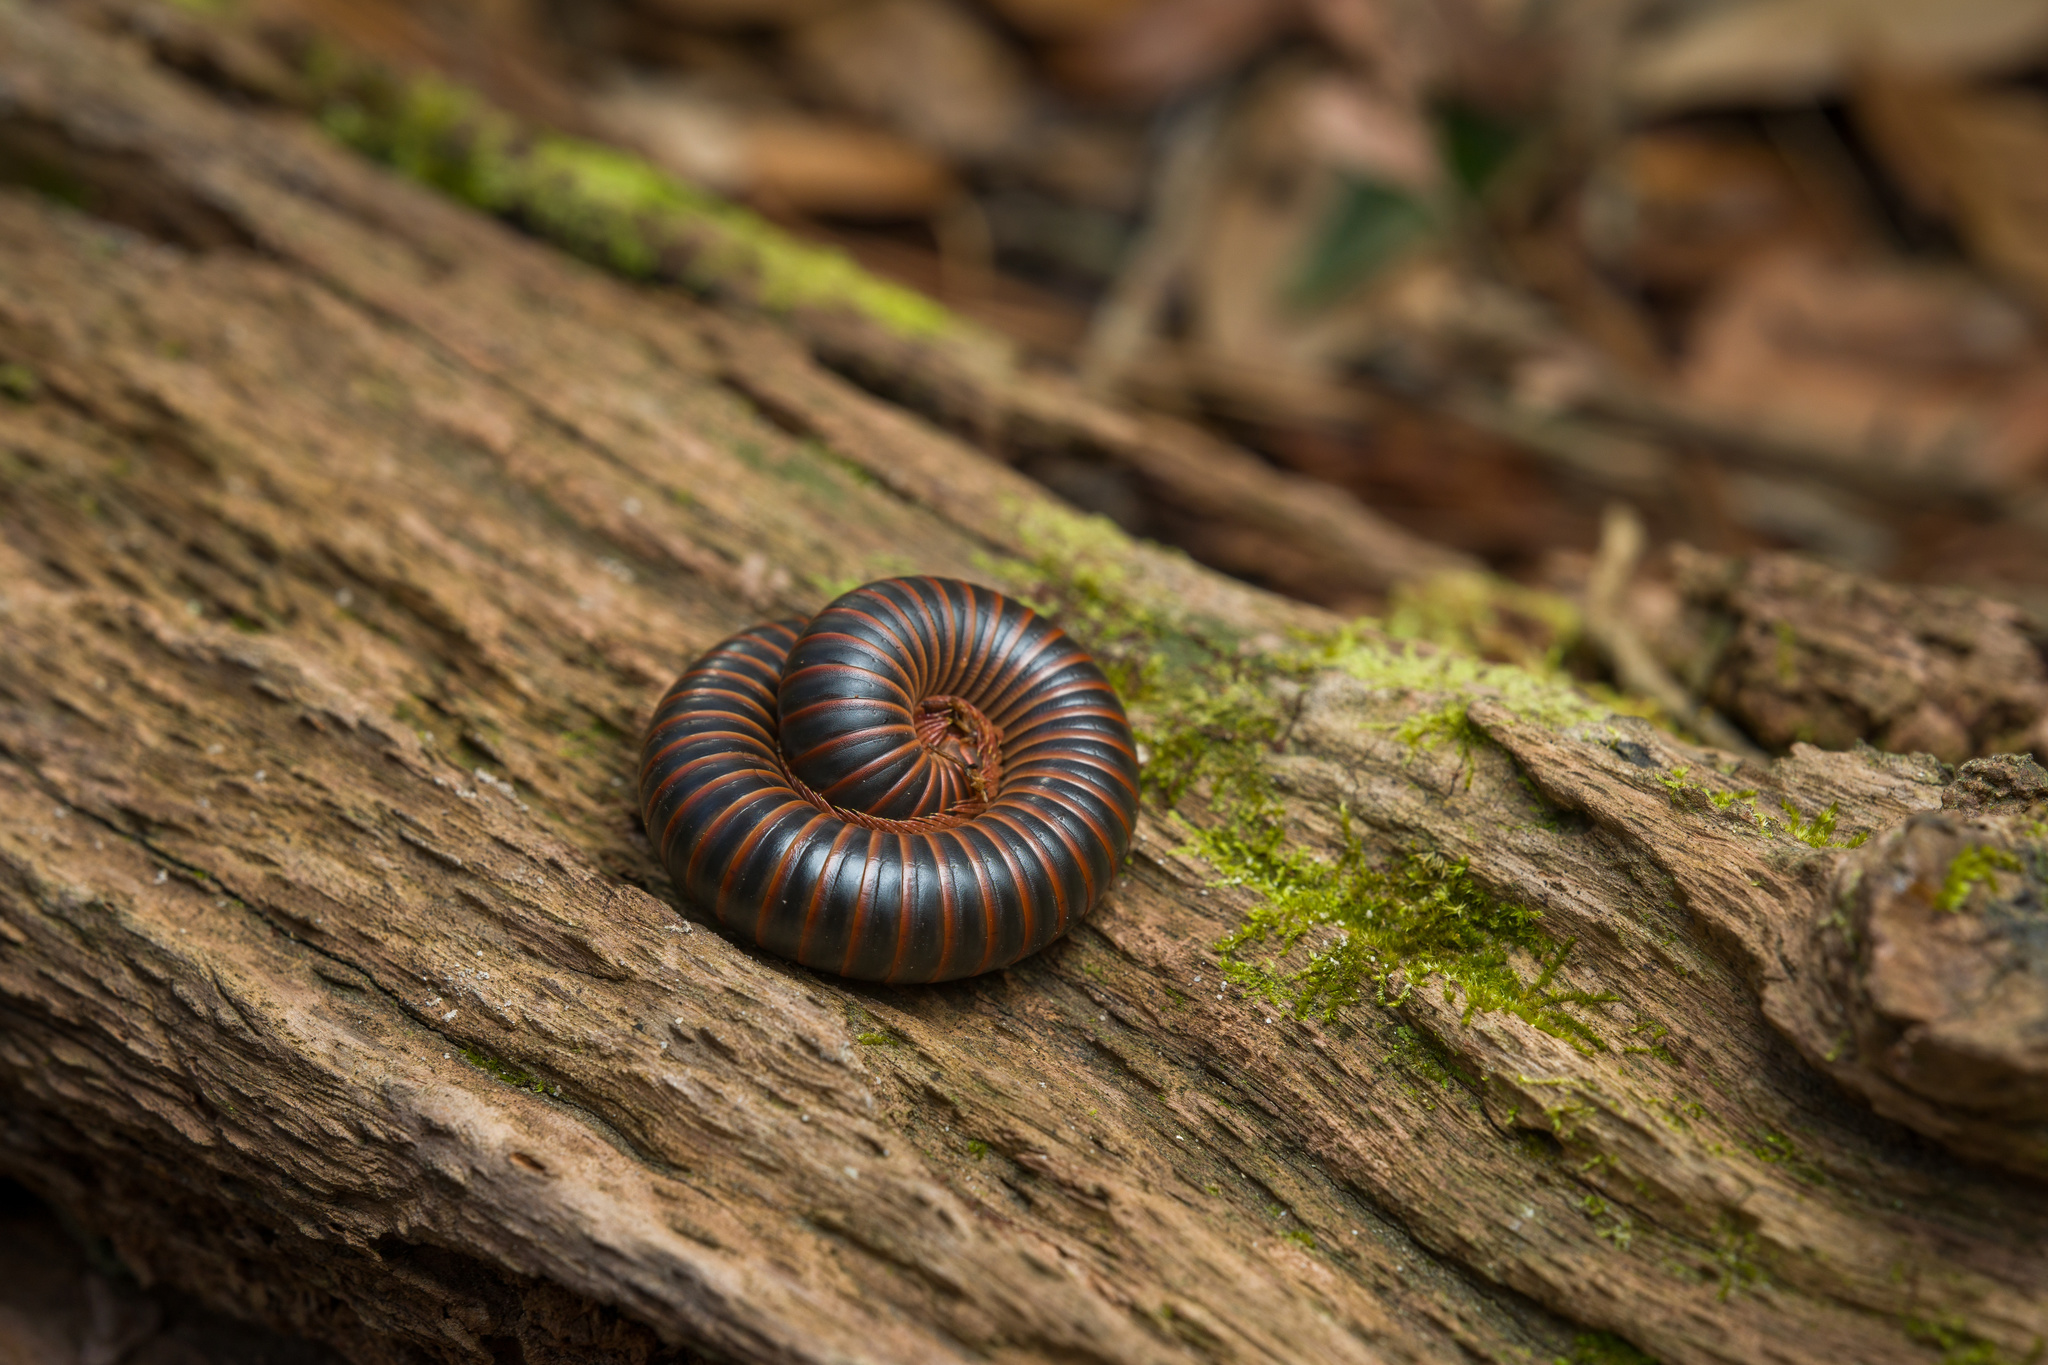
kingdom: Animalia
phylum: Arthropoda
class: Diplopoda
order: Spirobolida
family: Spirobolidae
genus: Narceus
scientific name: Narceus
